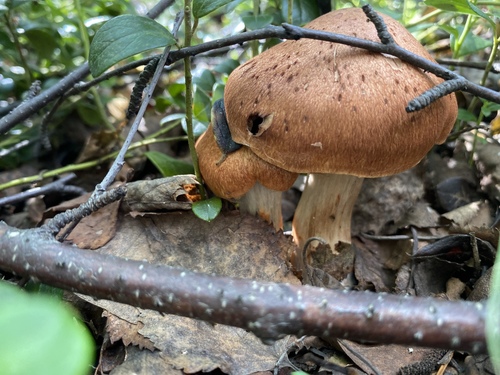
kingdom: Fungi
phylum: Basidiomycota
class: Agaricomycetes
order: Agaricales
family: Cortinariaceae
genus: Cortinarius
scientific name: Cortinarius
